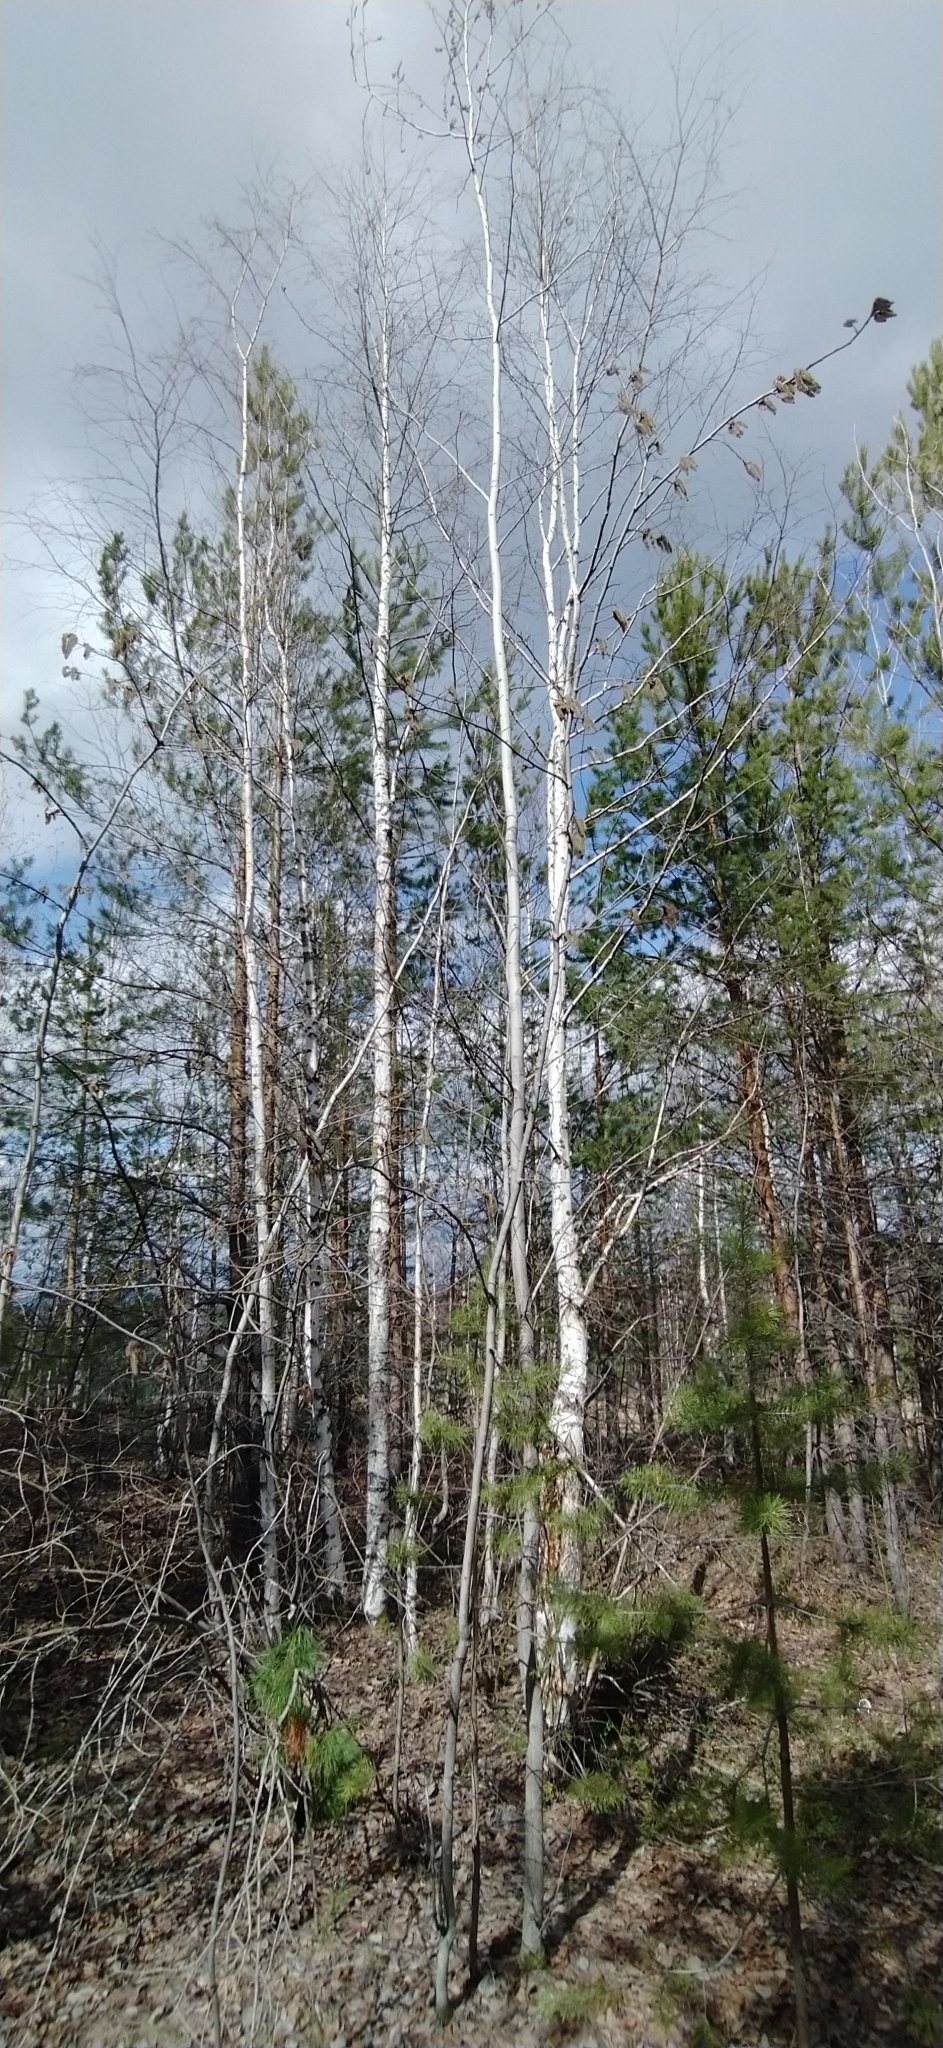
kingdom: Plantae
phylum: Tracheophyta
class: Magnoliopsida
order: Malpighiales
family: Salicaceae
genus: Populus
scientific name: Populus tremula
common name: European aspen
